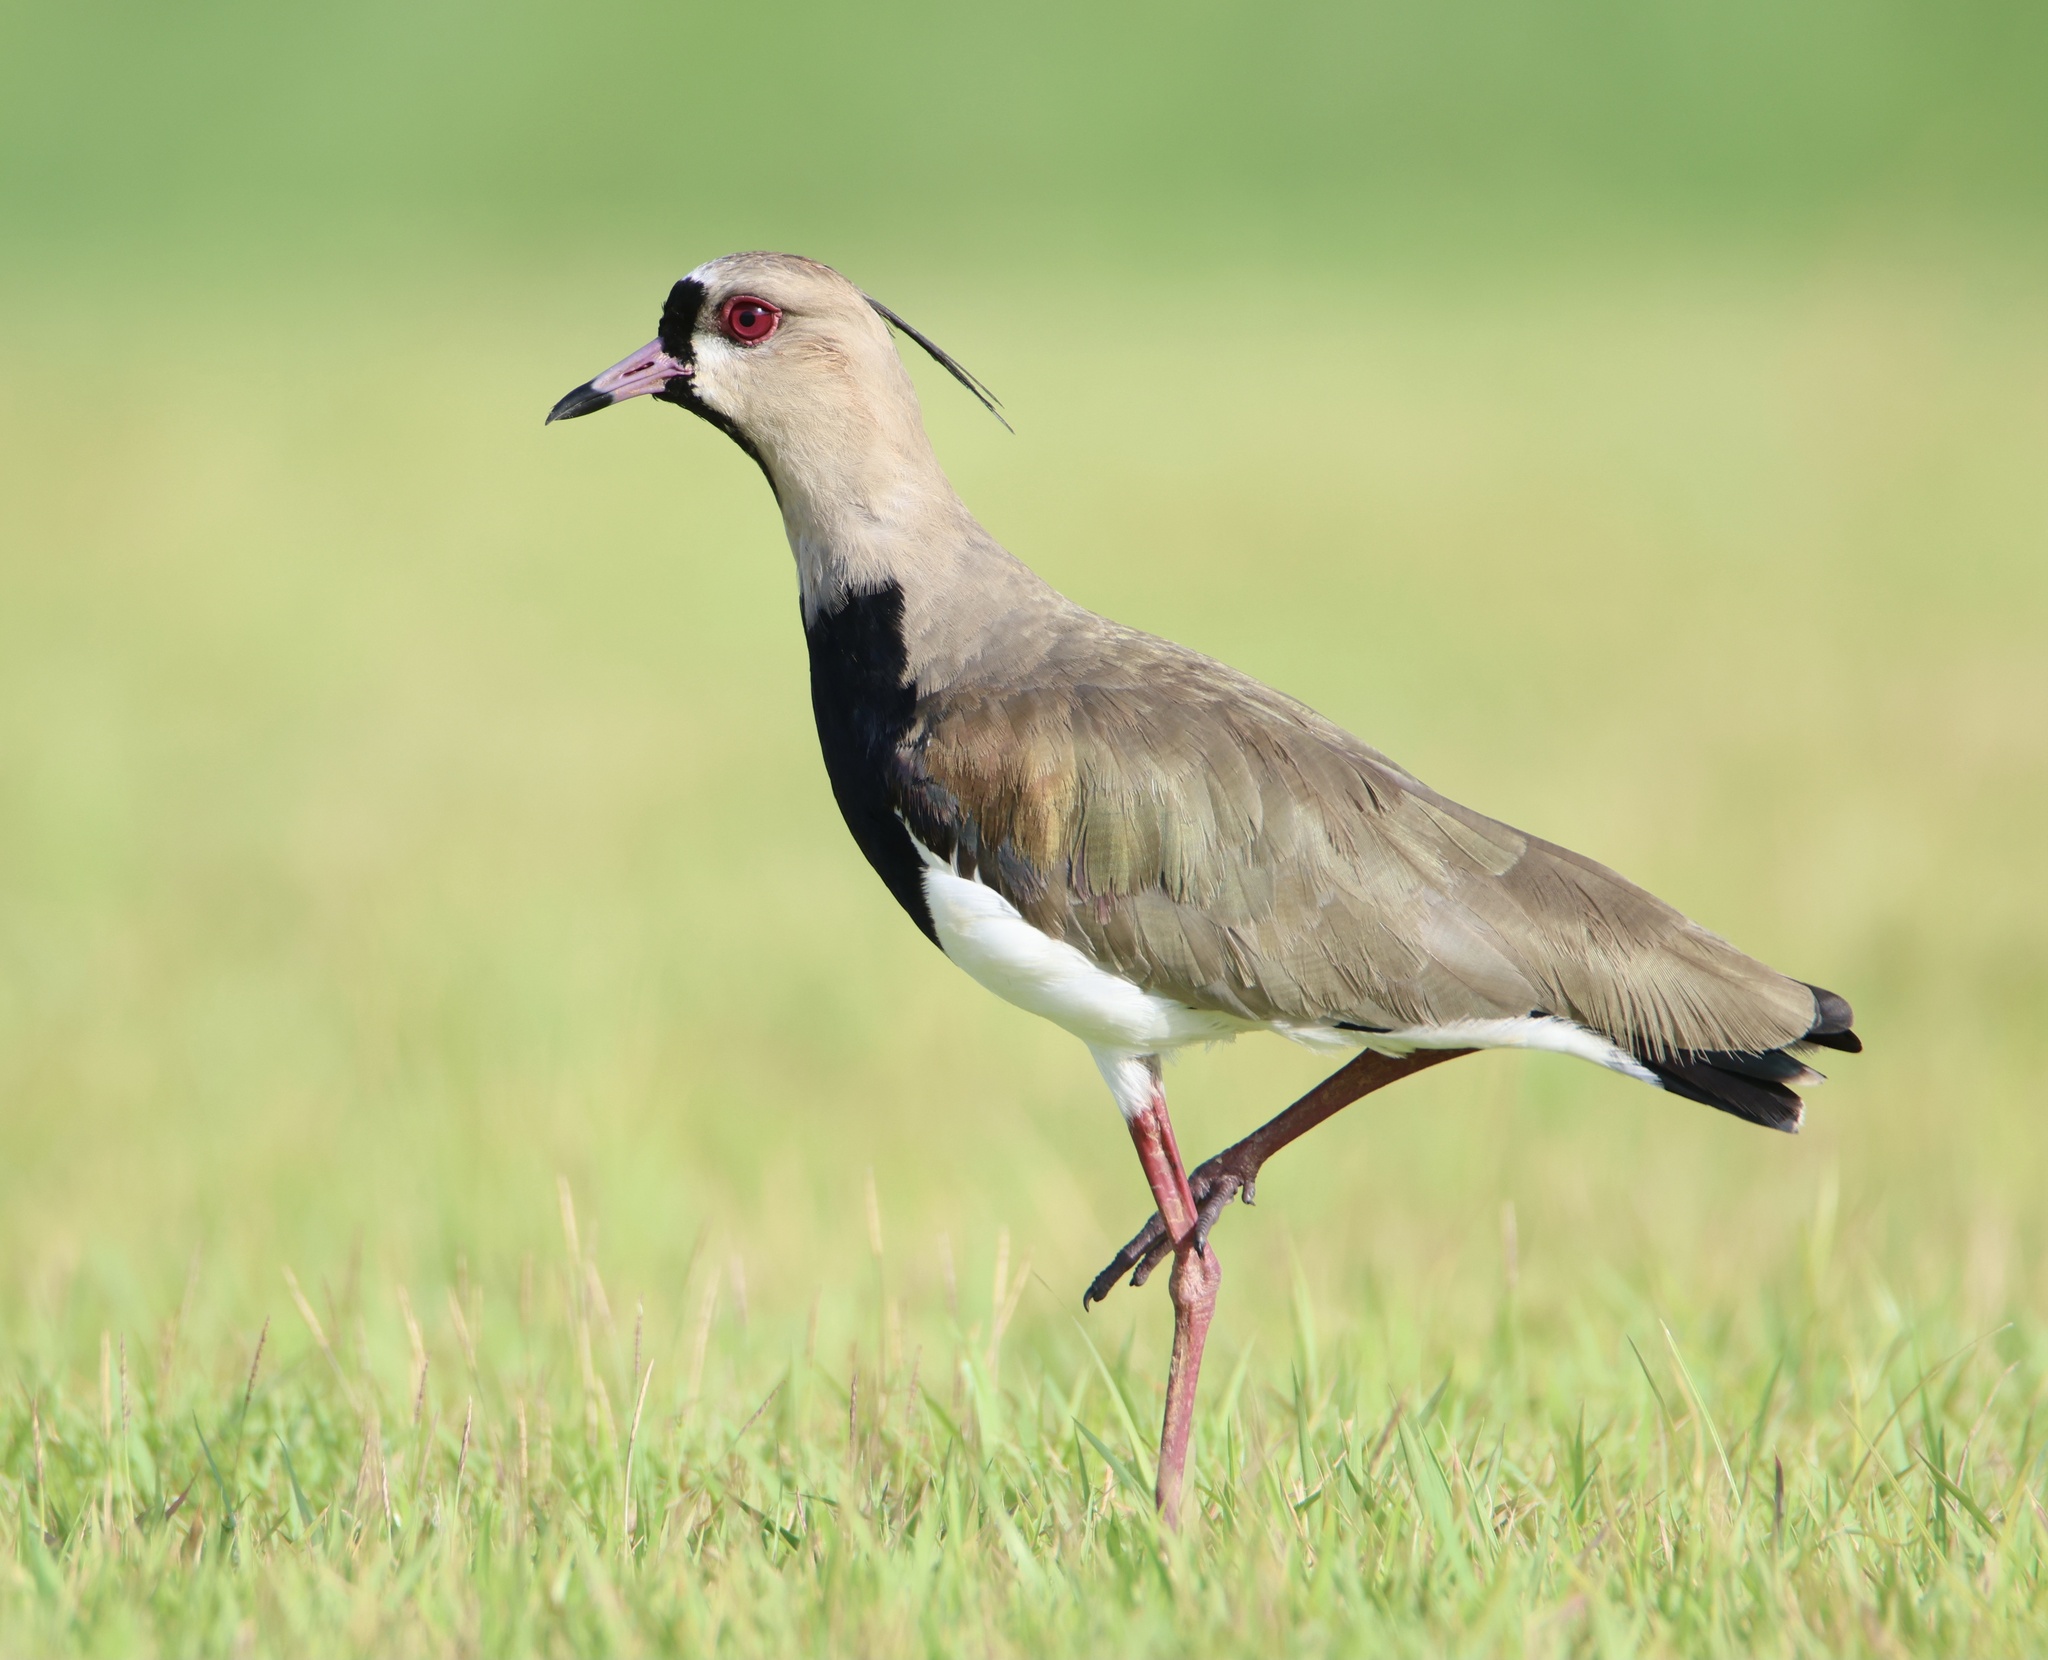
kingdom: Animalia
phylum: Chordata
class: Aves
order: Charadriiformes
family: Charadriidae
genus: Vanellus
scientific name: Vanellus chilensis
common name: Southern lapwing
